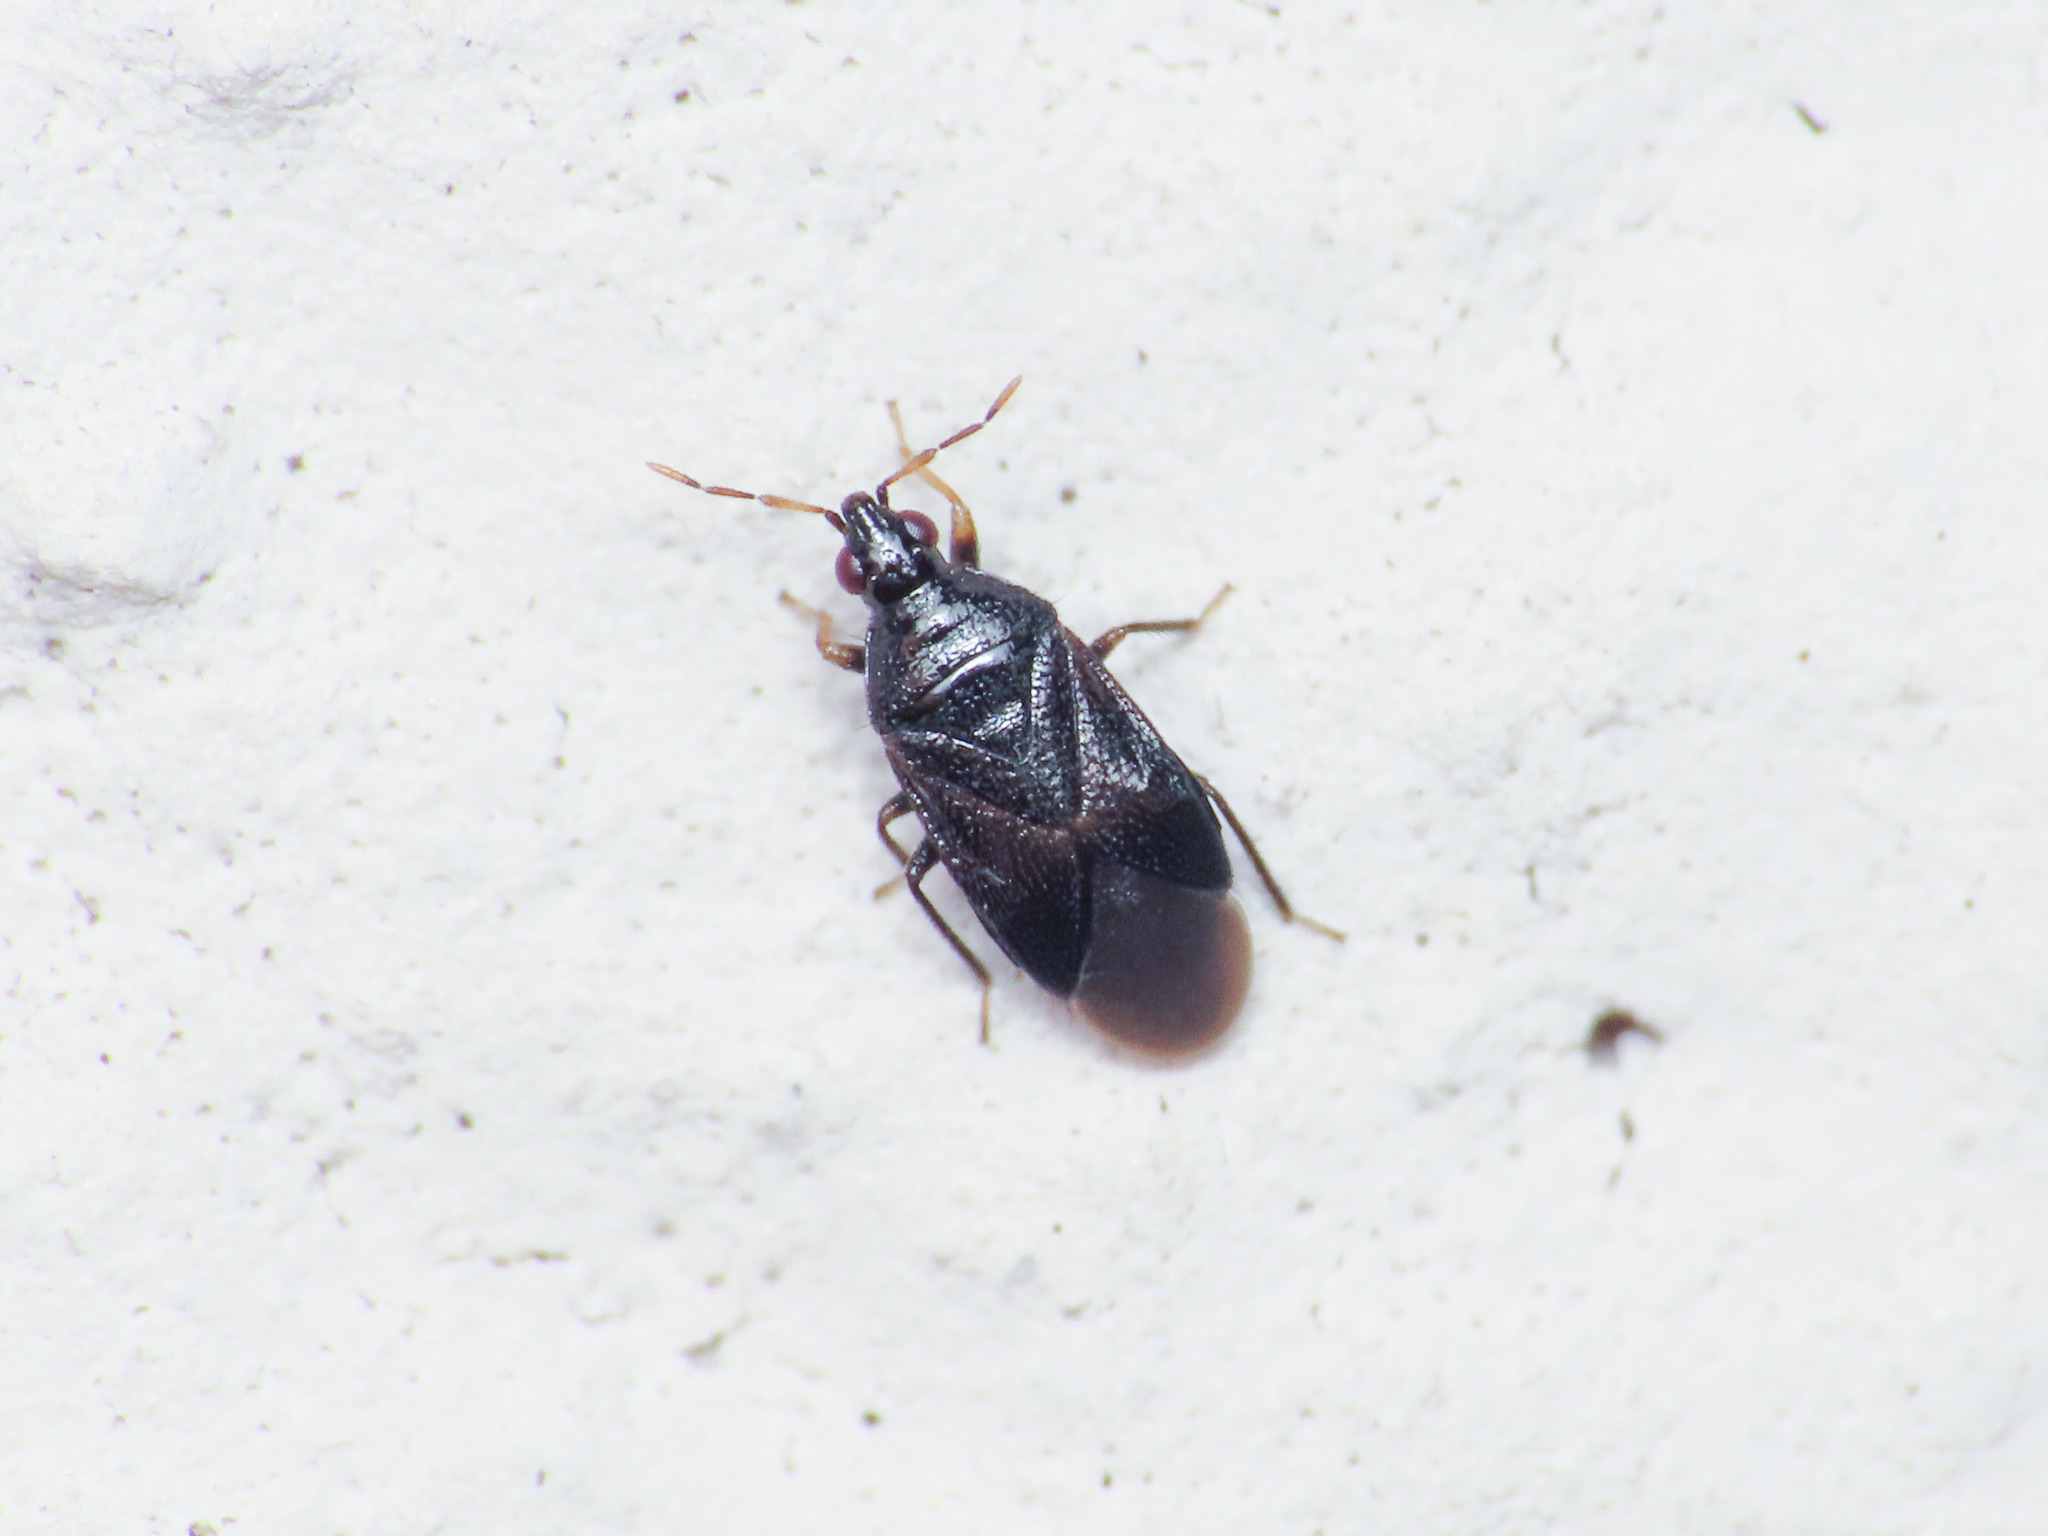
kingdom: Animalia
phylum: Arthropoda
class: Insecta
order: Hemiptera
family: Anthocoridae
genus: Orius
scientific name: Orius niger
